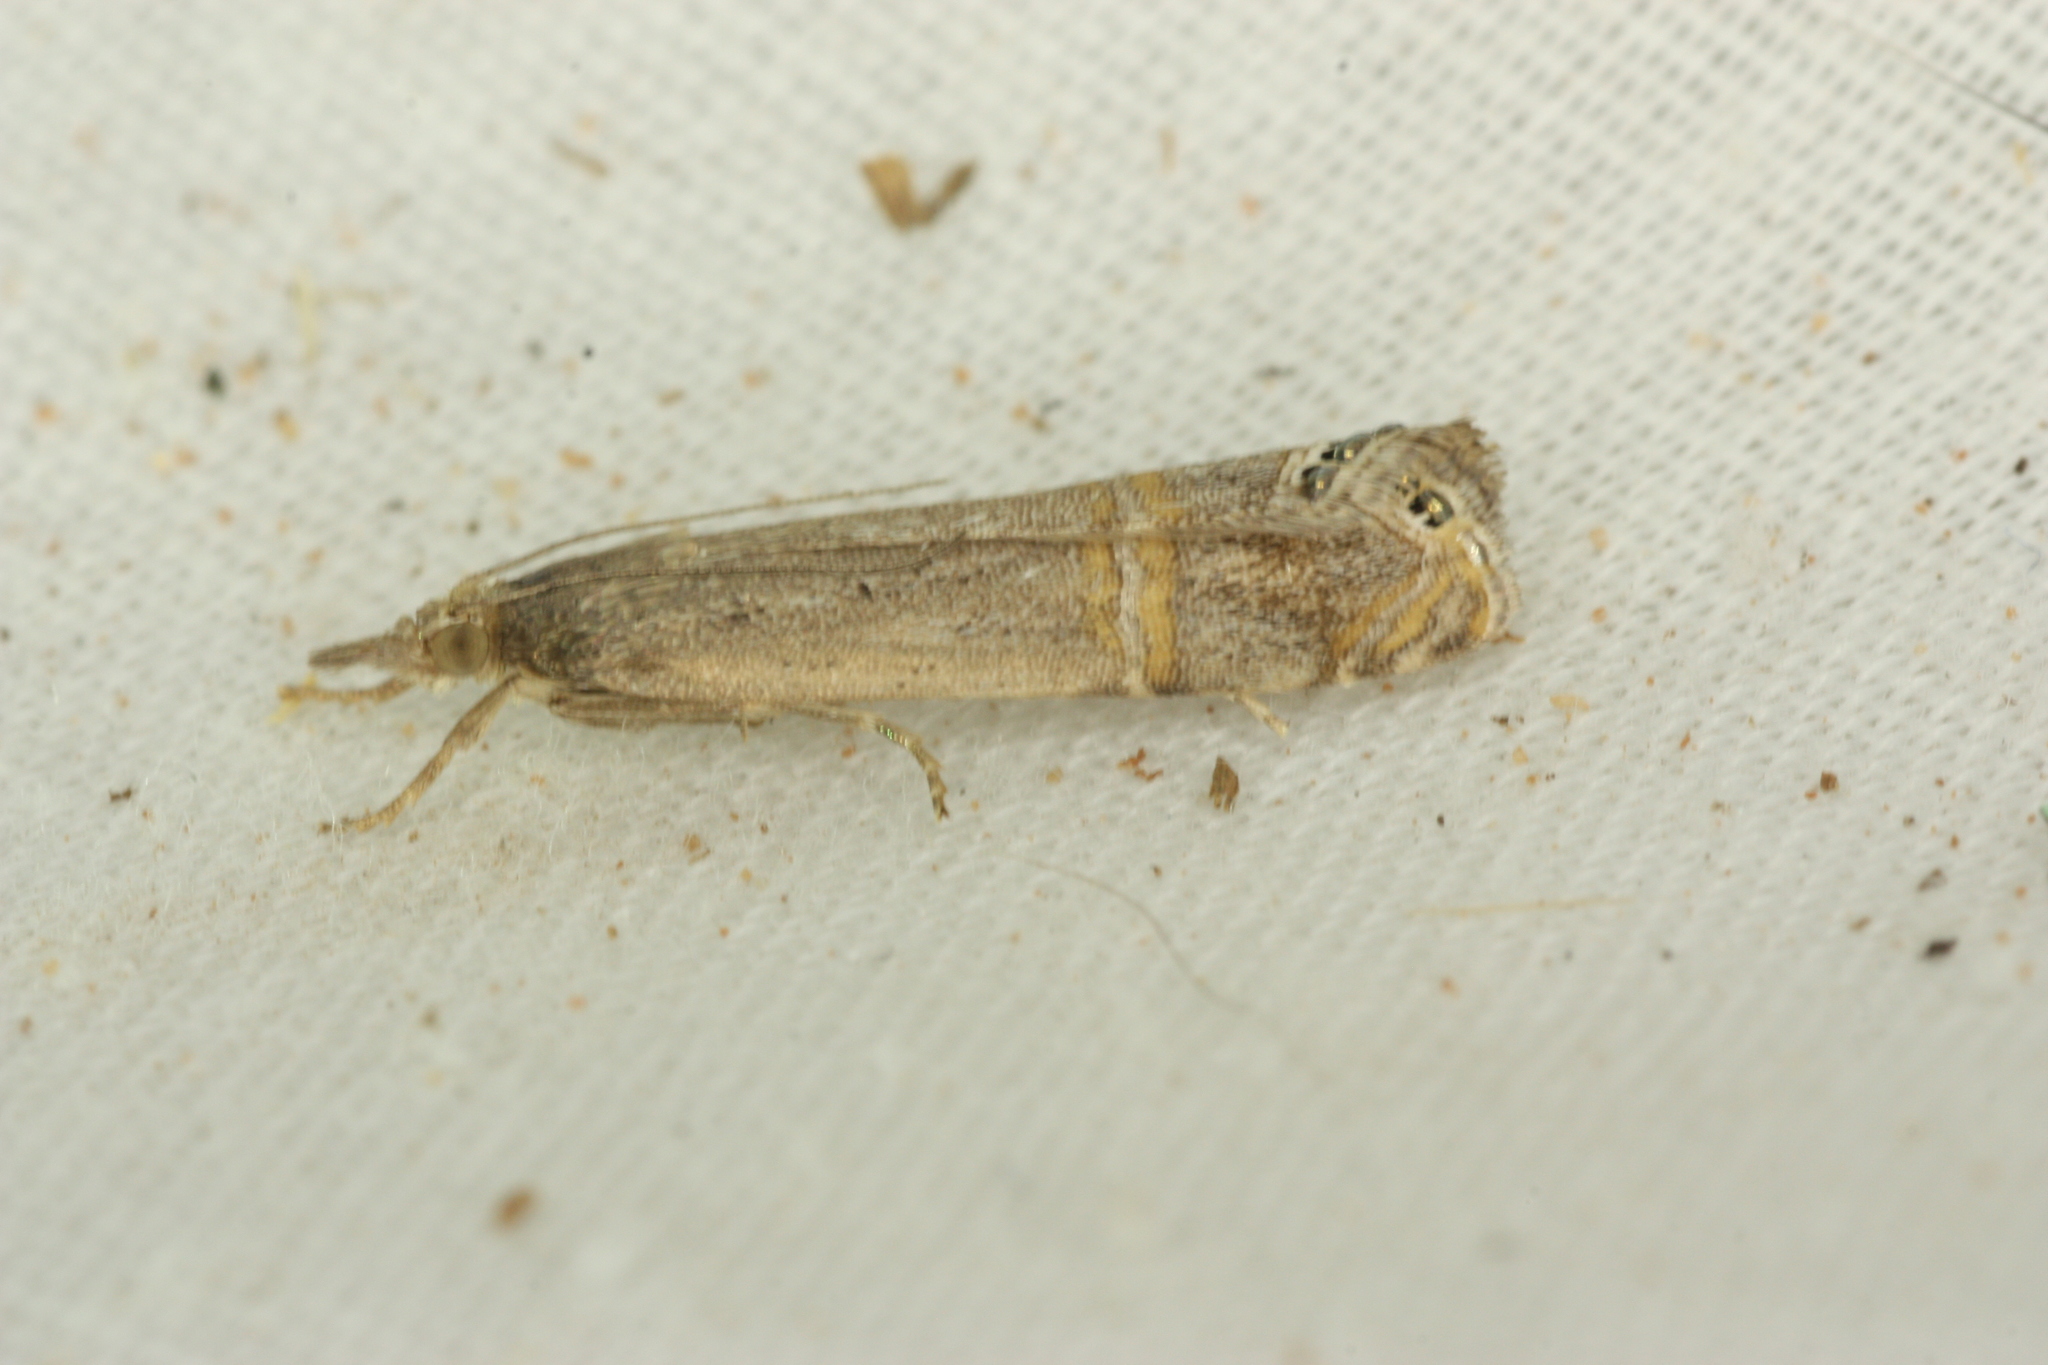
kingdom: Animalia
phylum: Arthropoda
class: Insecta
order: Lepidoptera
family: Crambidae
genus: Euchromius
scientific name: Euchromius ocellea
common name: Necklace veneer moth
